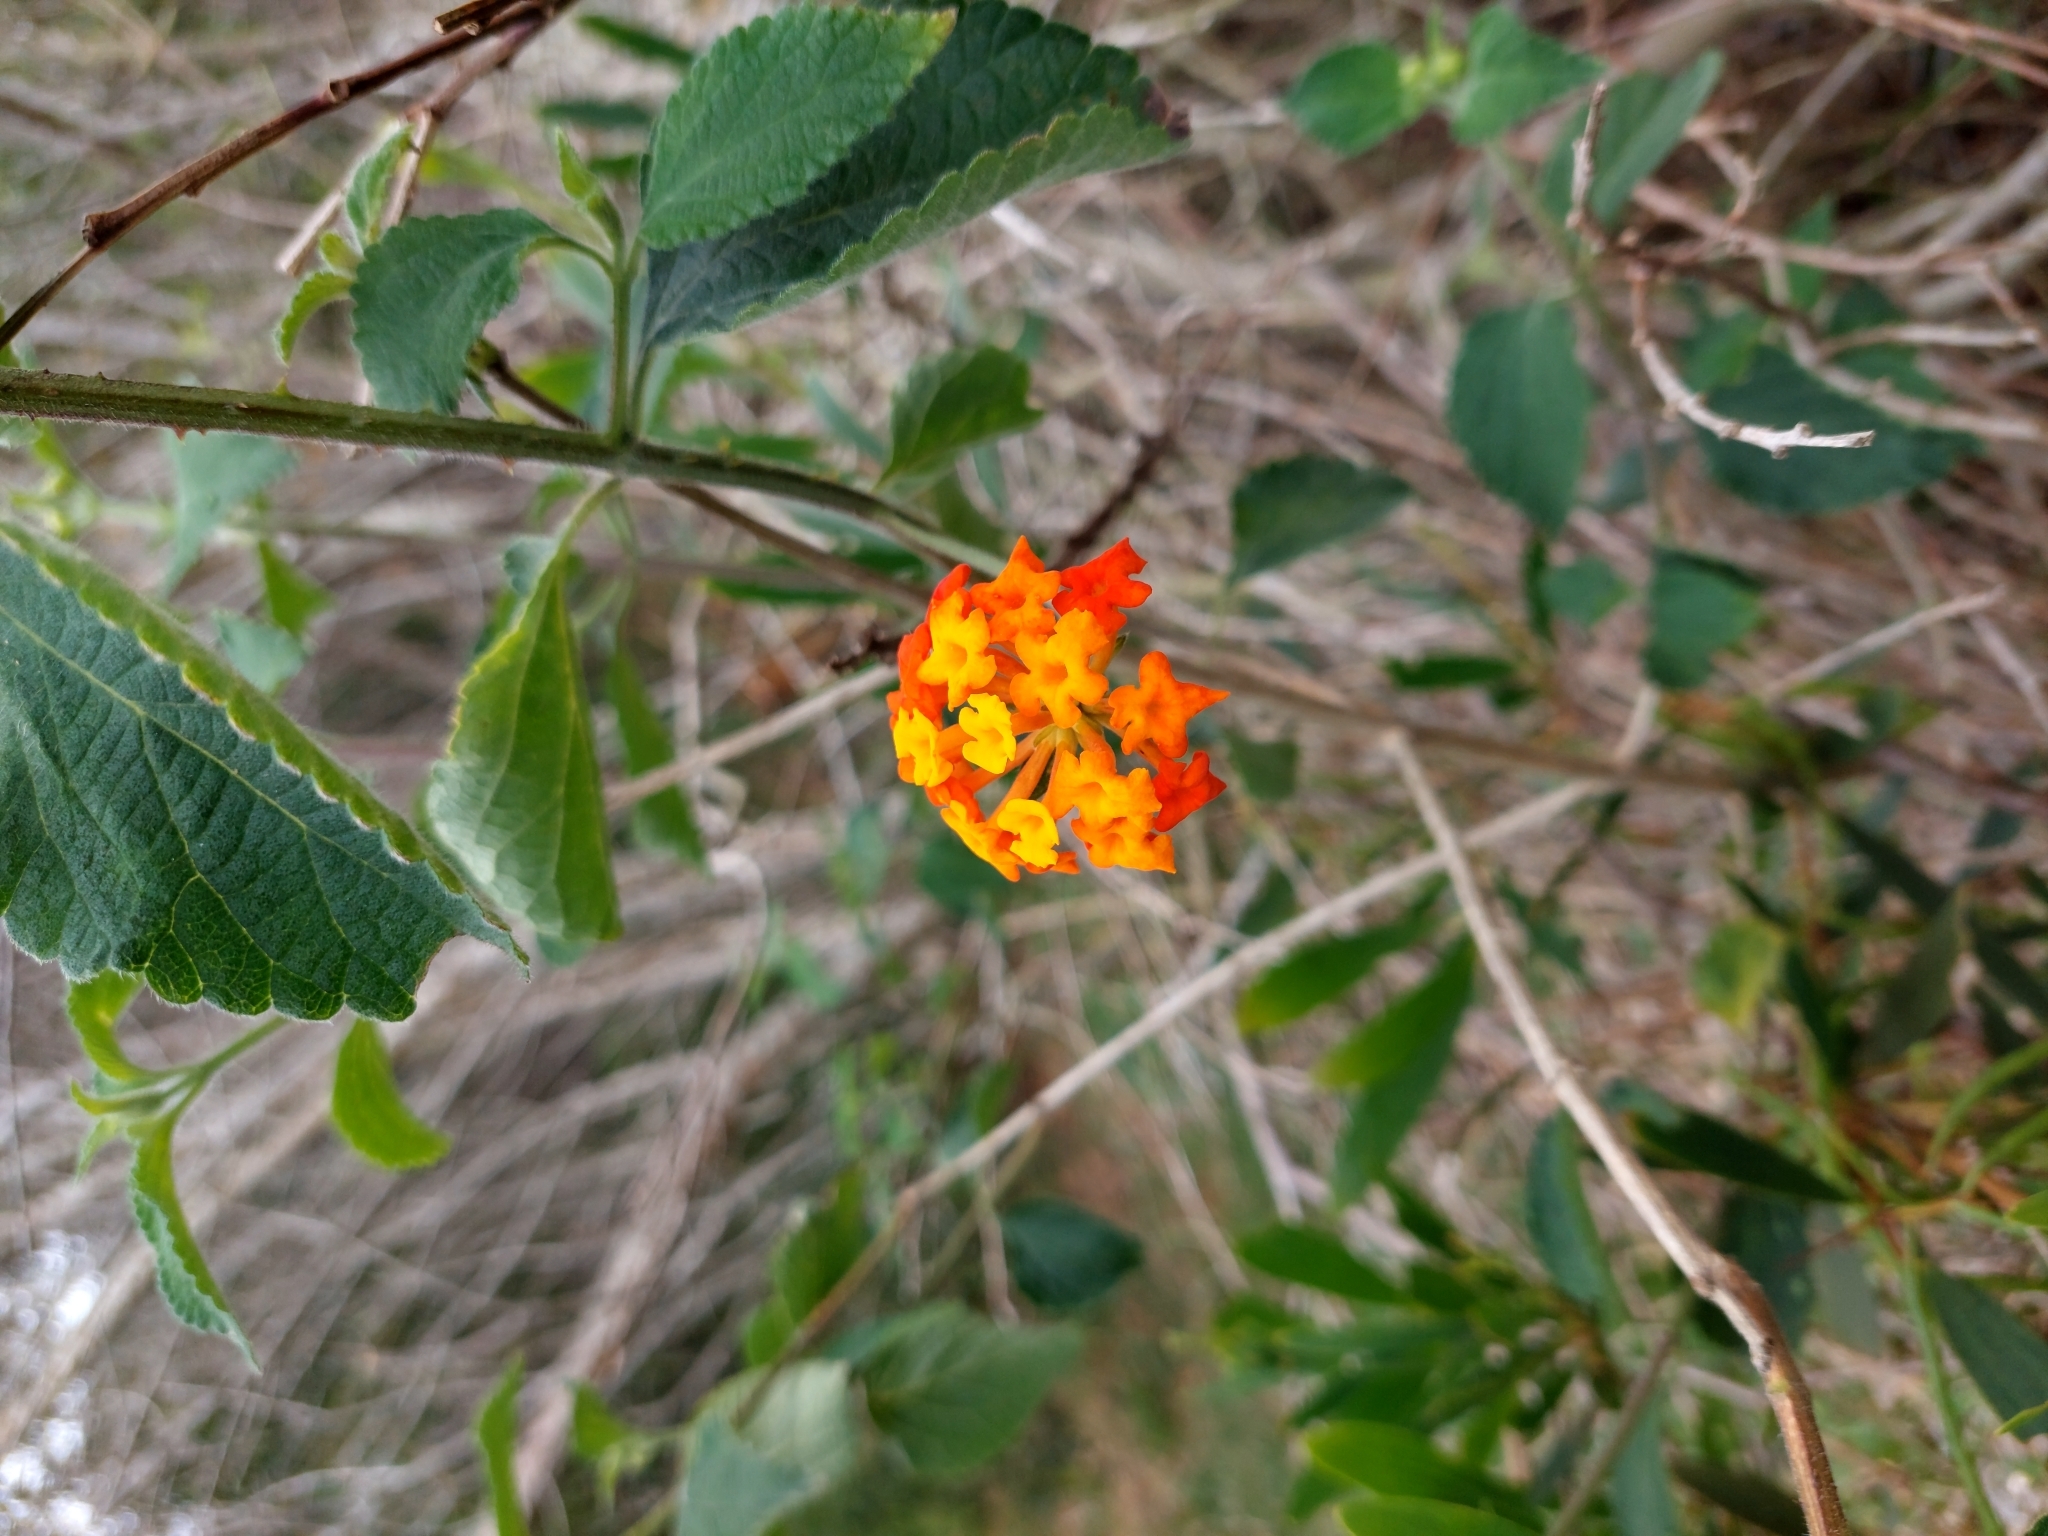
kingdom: Plantae
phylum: Tracheophyta
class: Magnoliopsida
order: Lamiales
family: Verbenaceae
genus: Lantana
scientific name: Lantana camara
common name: Lantana
